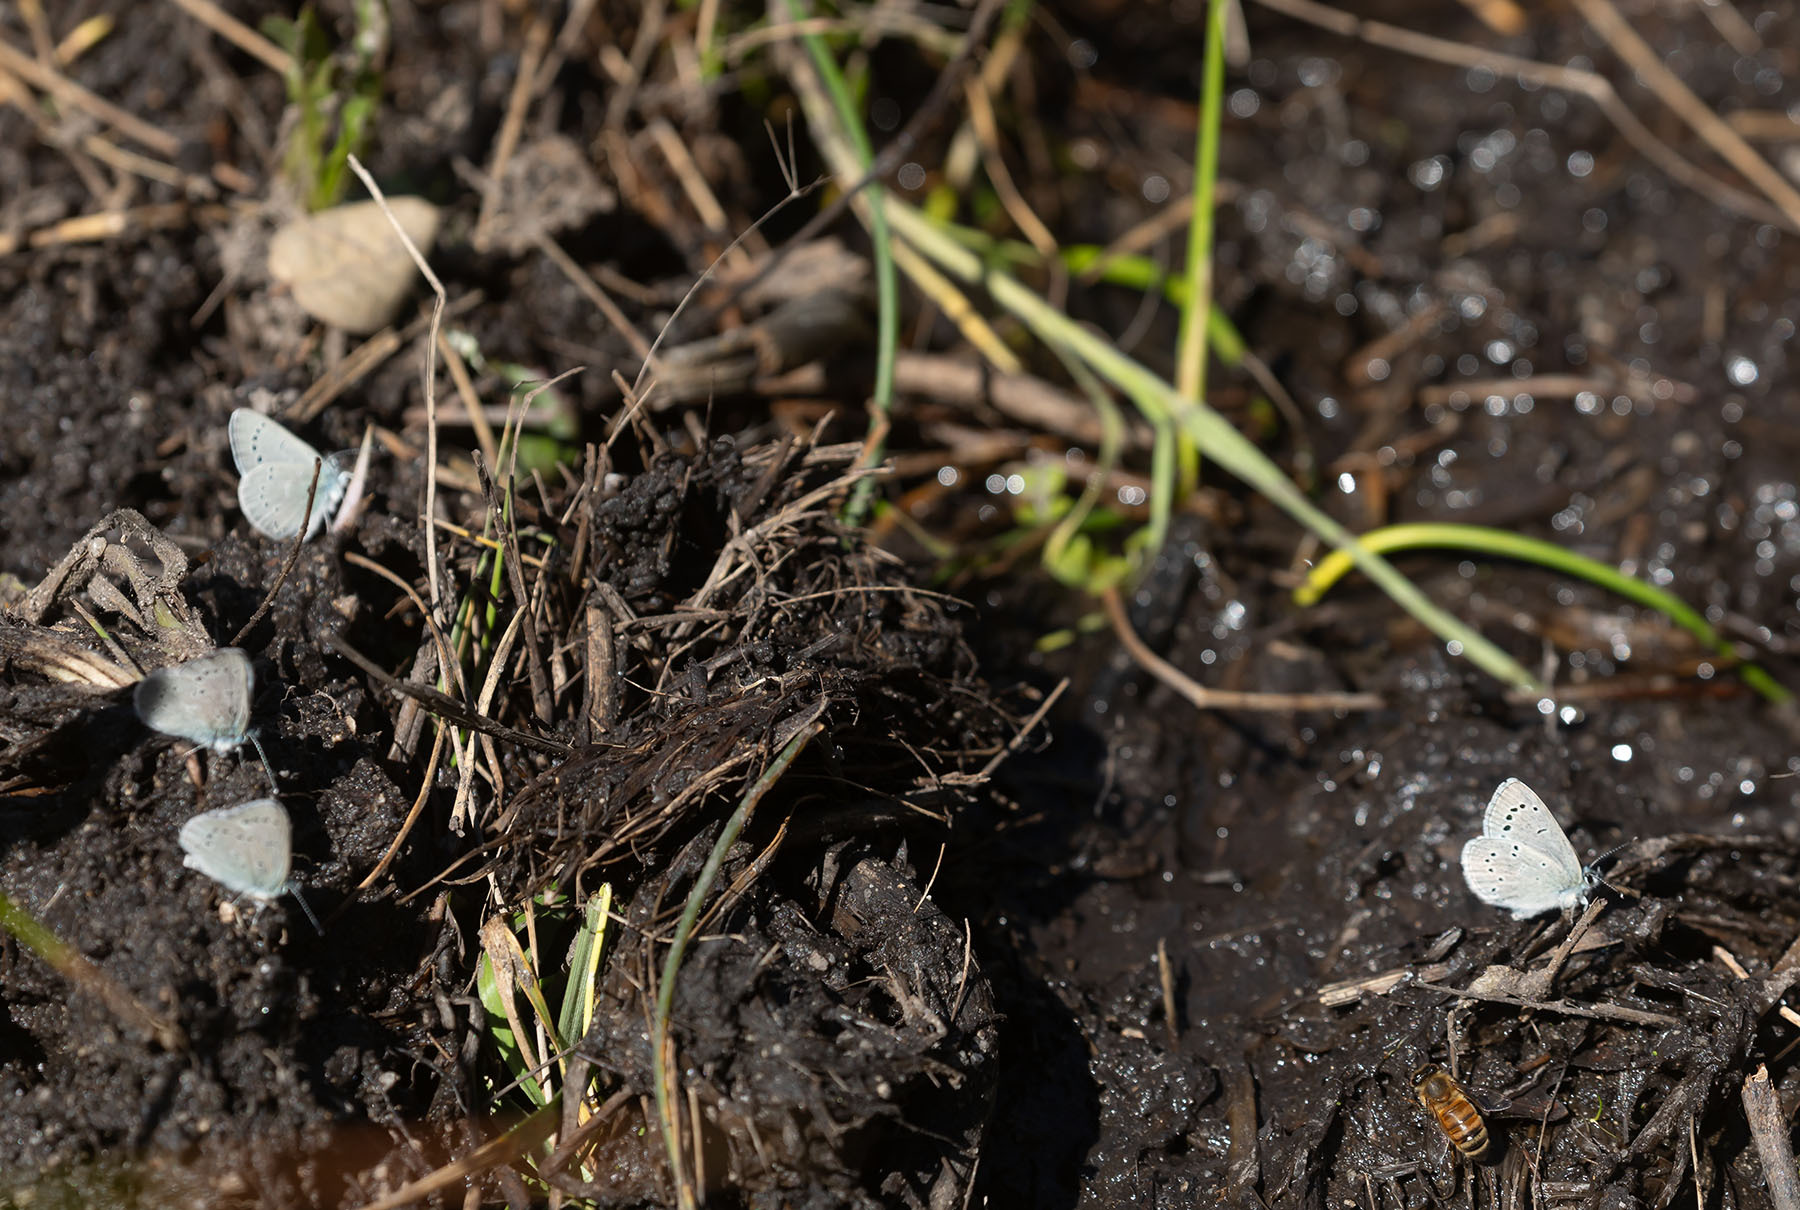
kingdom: Animalia
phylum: Arthropoda
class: Insecta
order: Lepidoptera
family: Lycaenidae
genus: Glaucopsyche
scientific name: Glaucopsyche lygdamus
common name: Silvery blue
